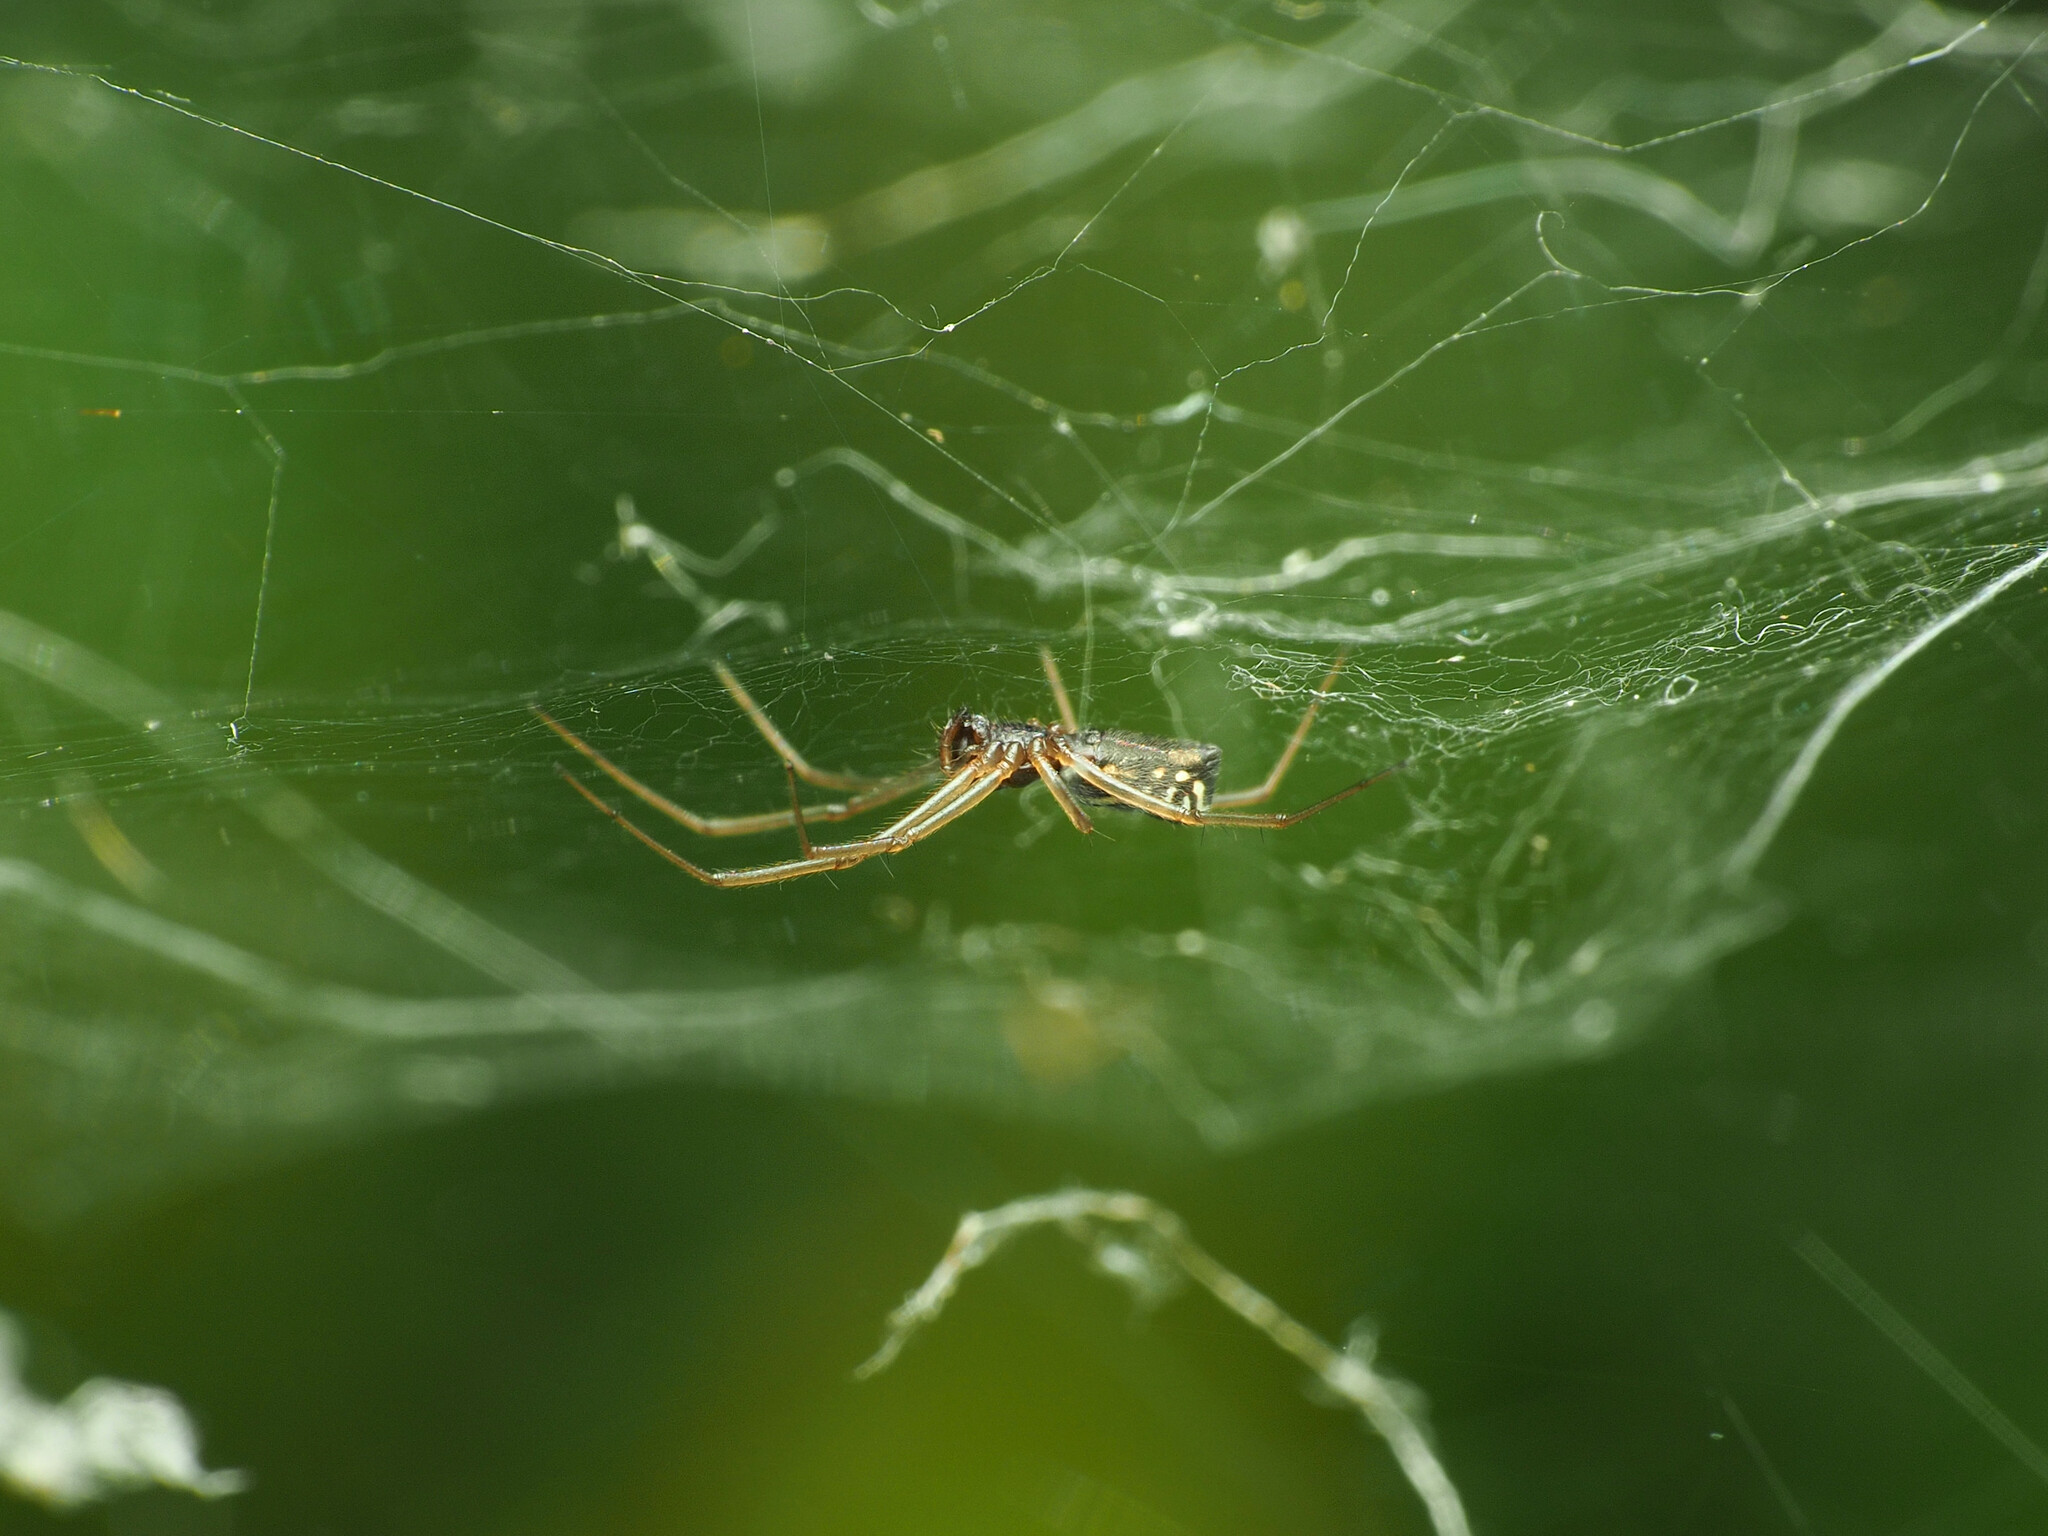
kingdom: Animalia
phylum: Arthropoda
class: Arachnida
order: Araneae
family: Linyphiidae
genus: Frontinella
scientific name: Frontinella pyramitela
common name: Bowl-and-doily spider
